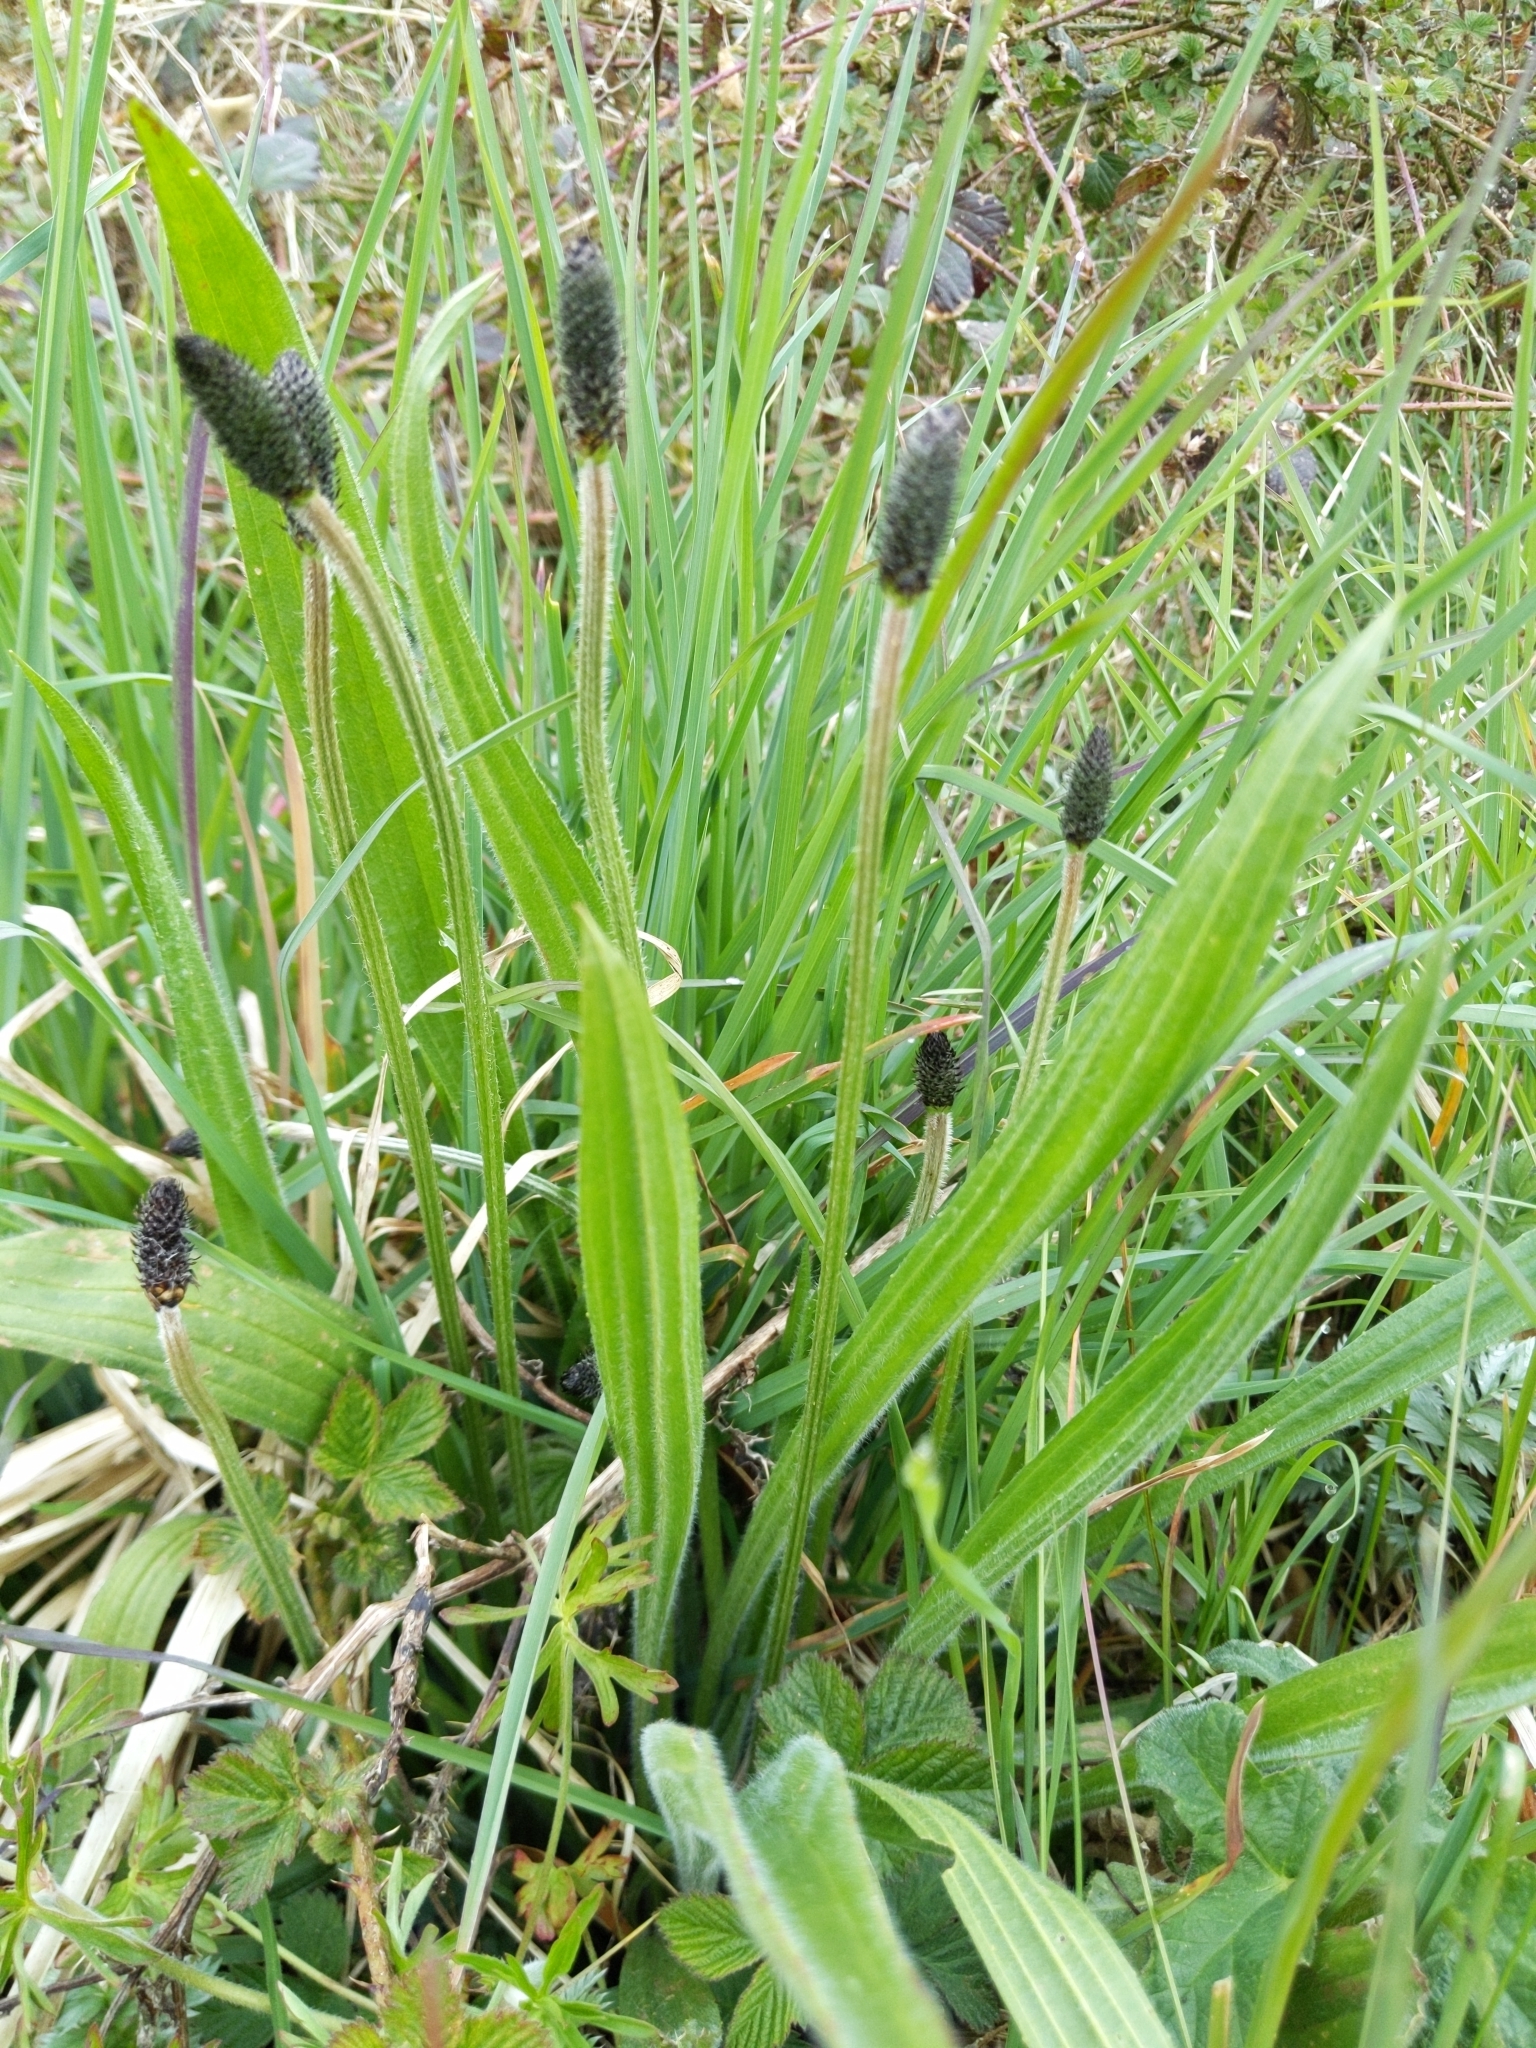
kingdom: Plantae
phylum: Tracheophyta
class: Magnoliopsida
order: Lamiales
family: Plantaginaceae
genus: Plantago
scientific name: Plantago lanceolata
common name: Ribwort plantain
